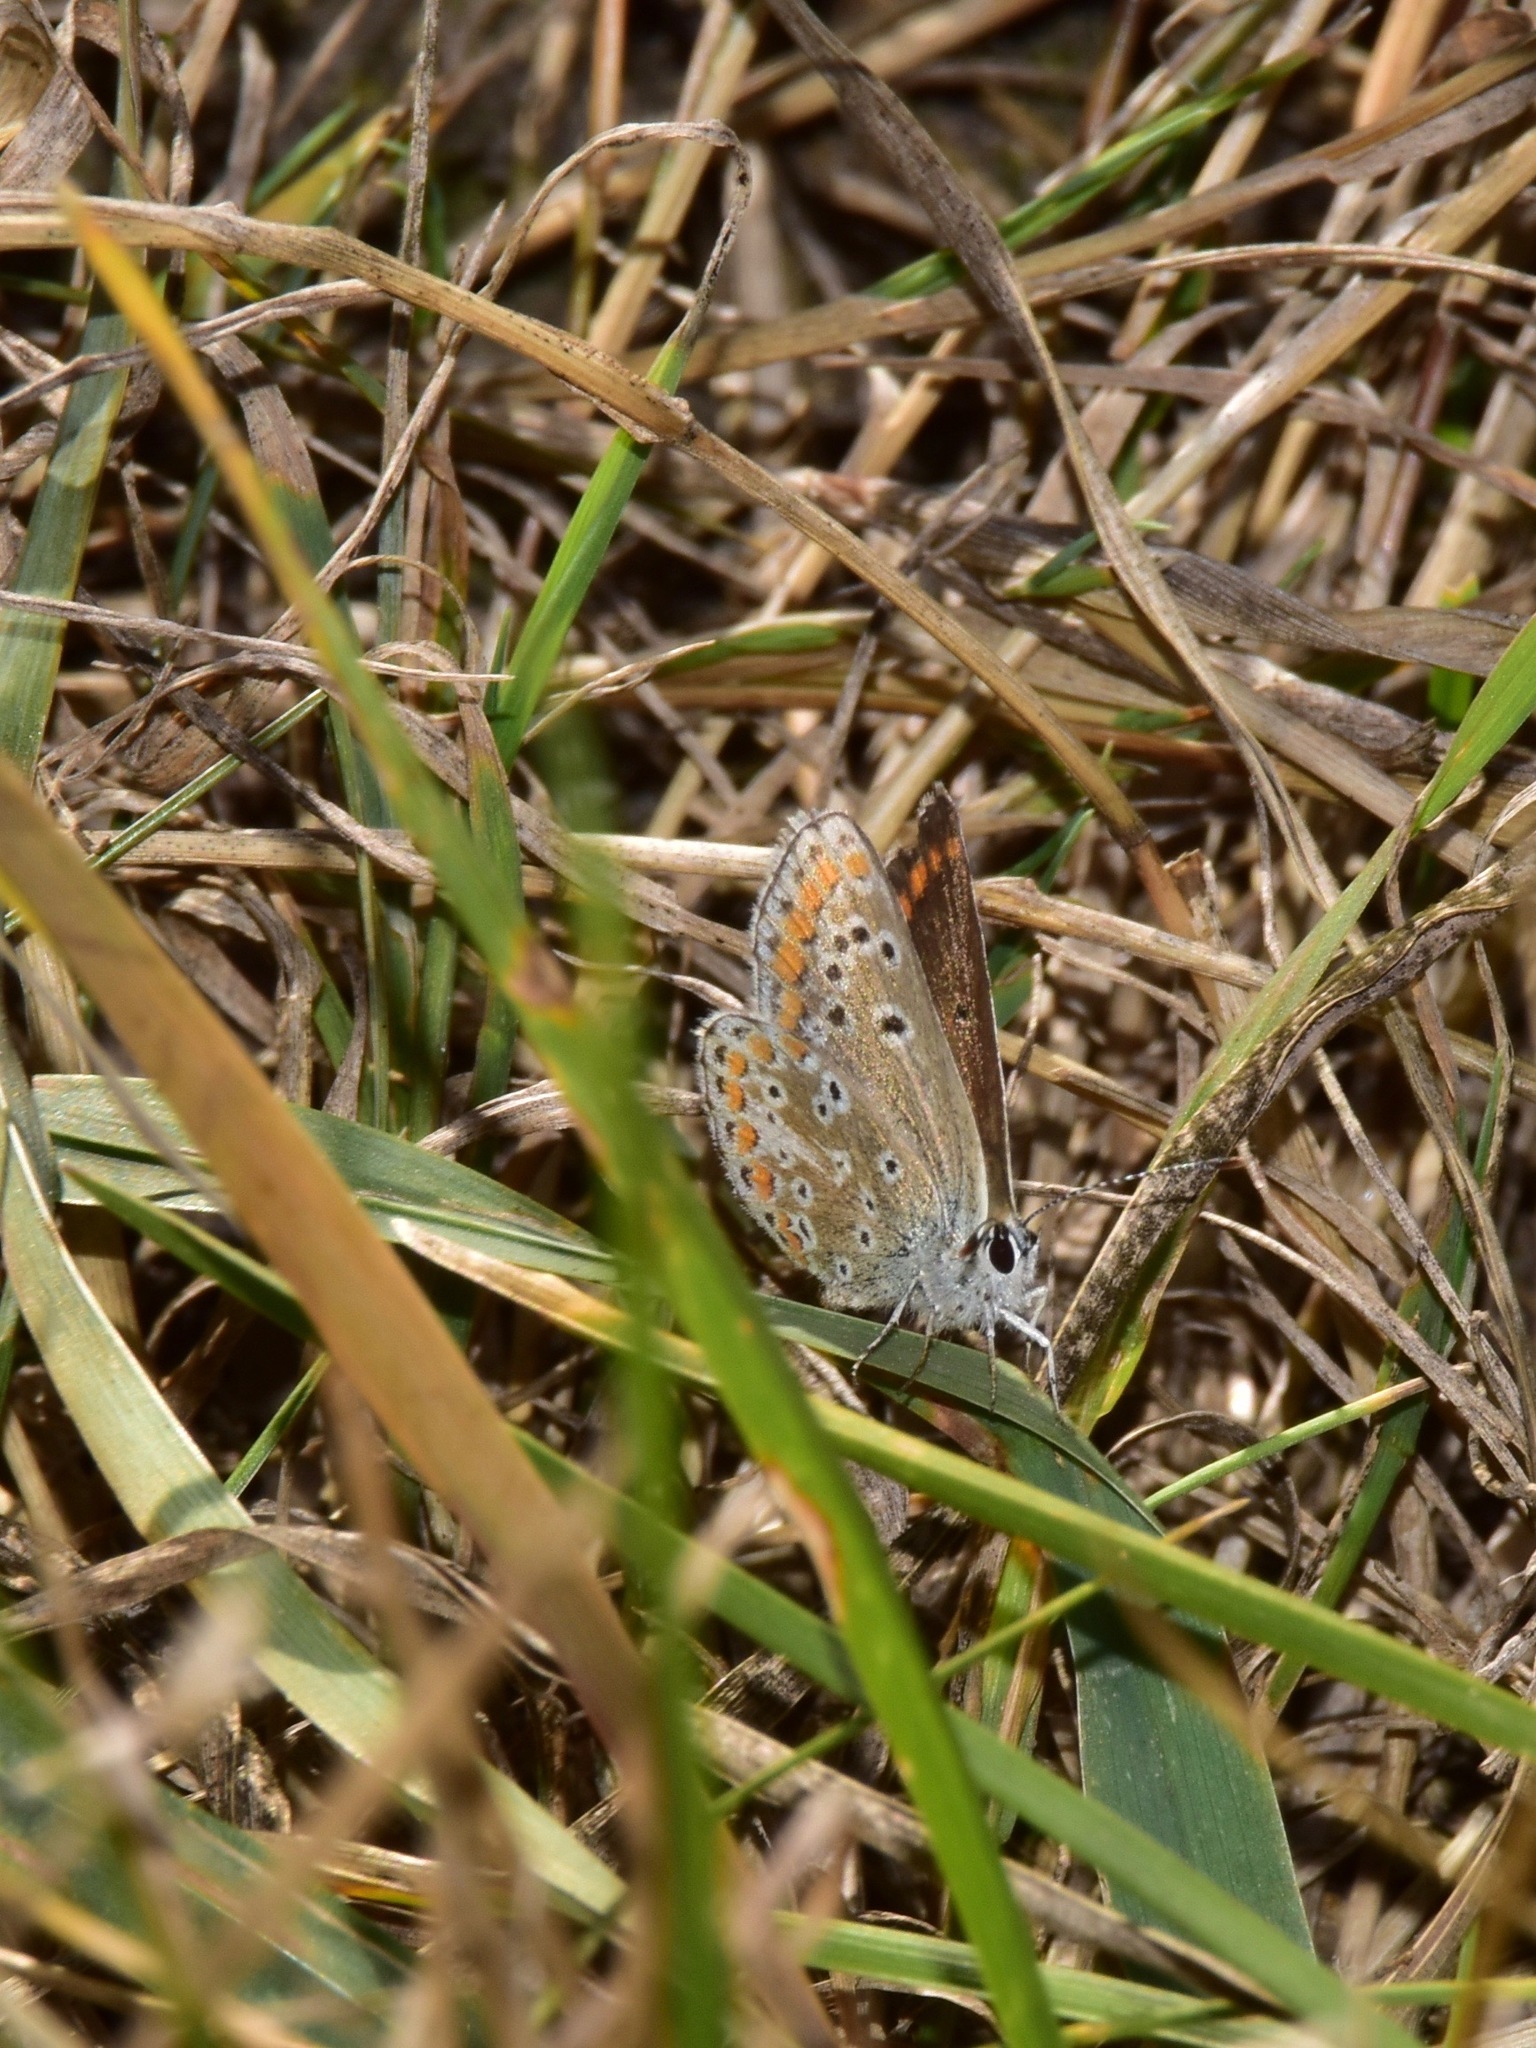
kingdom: Animalia
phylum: Arthropoda
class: Insecta
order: Lepidoptera
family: Lycaenidae
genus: Aricia
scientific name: Aricia agestis
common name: Brown argus
